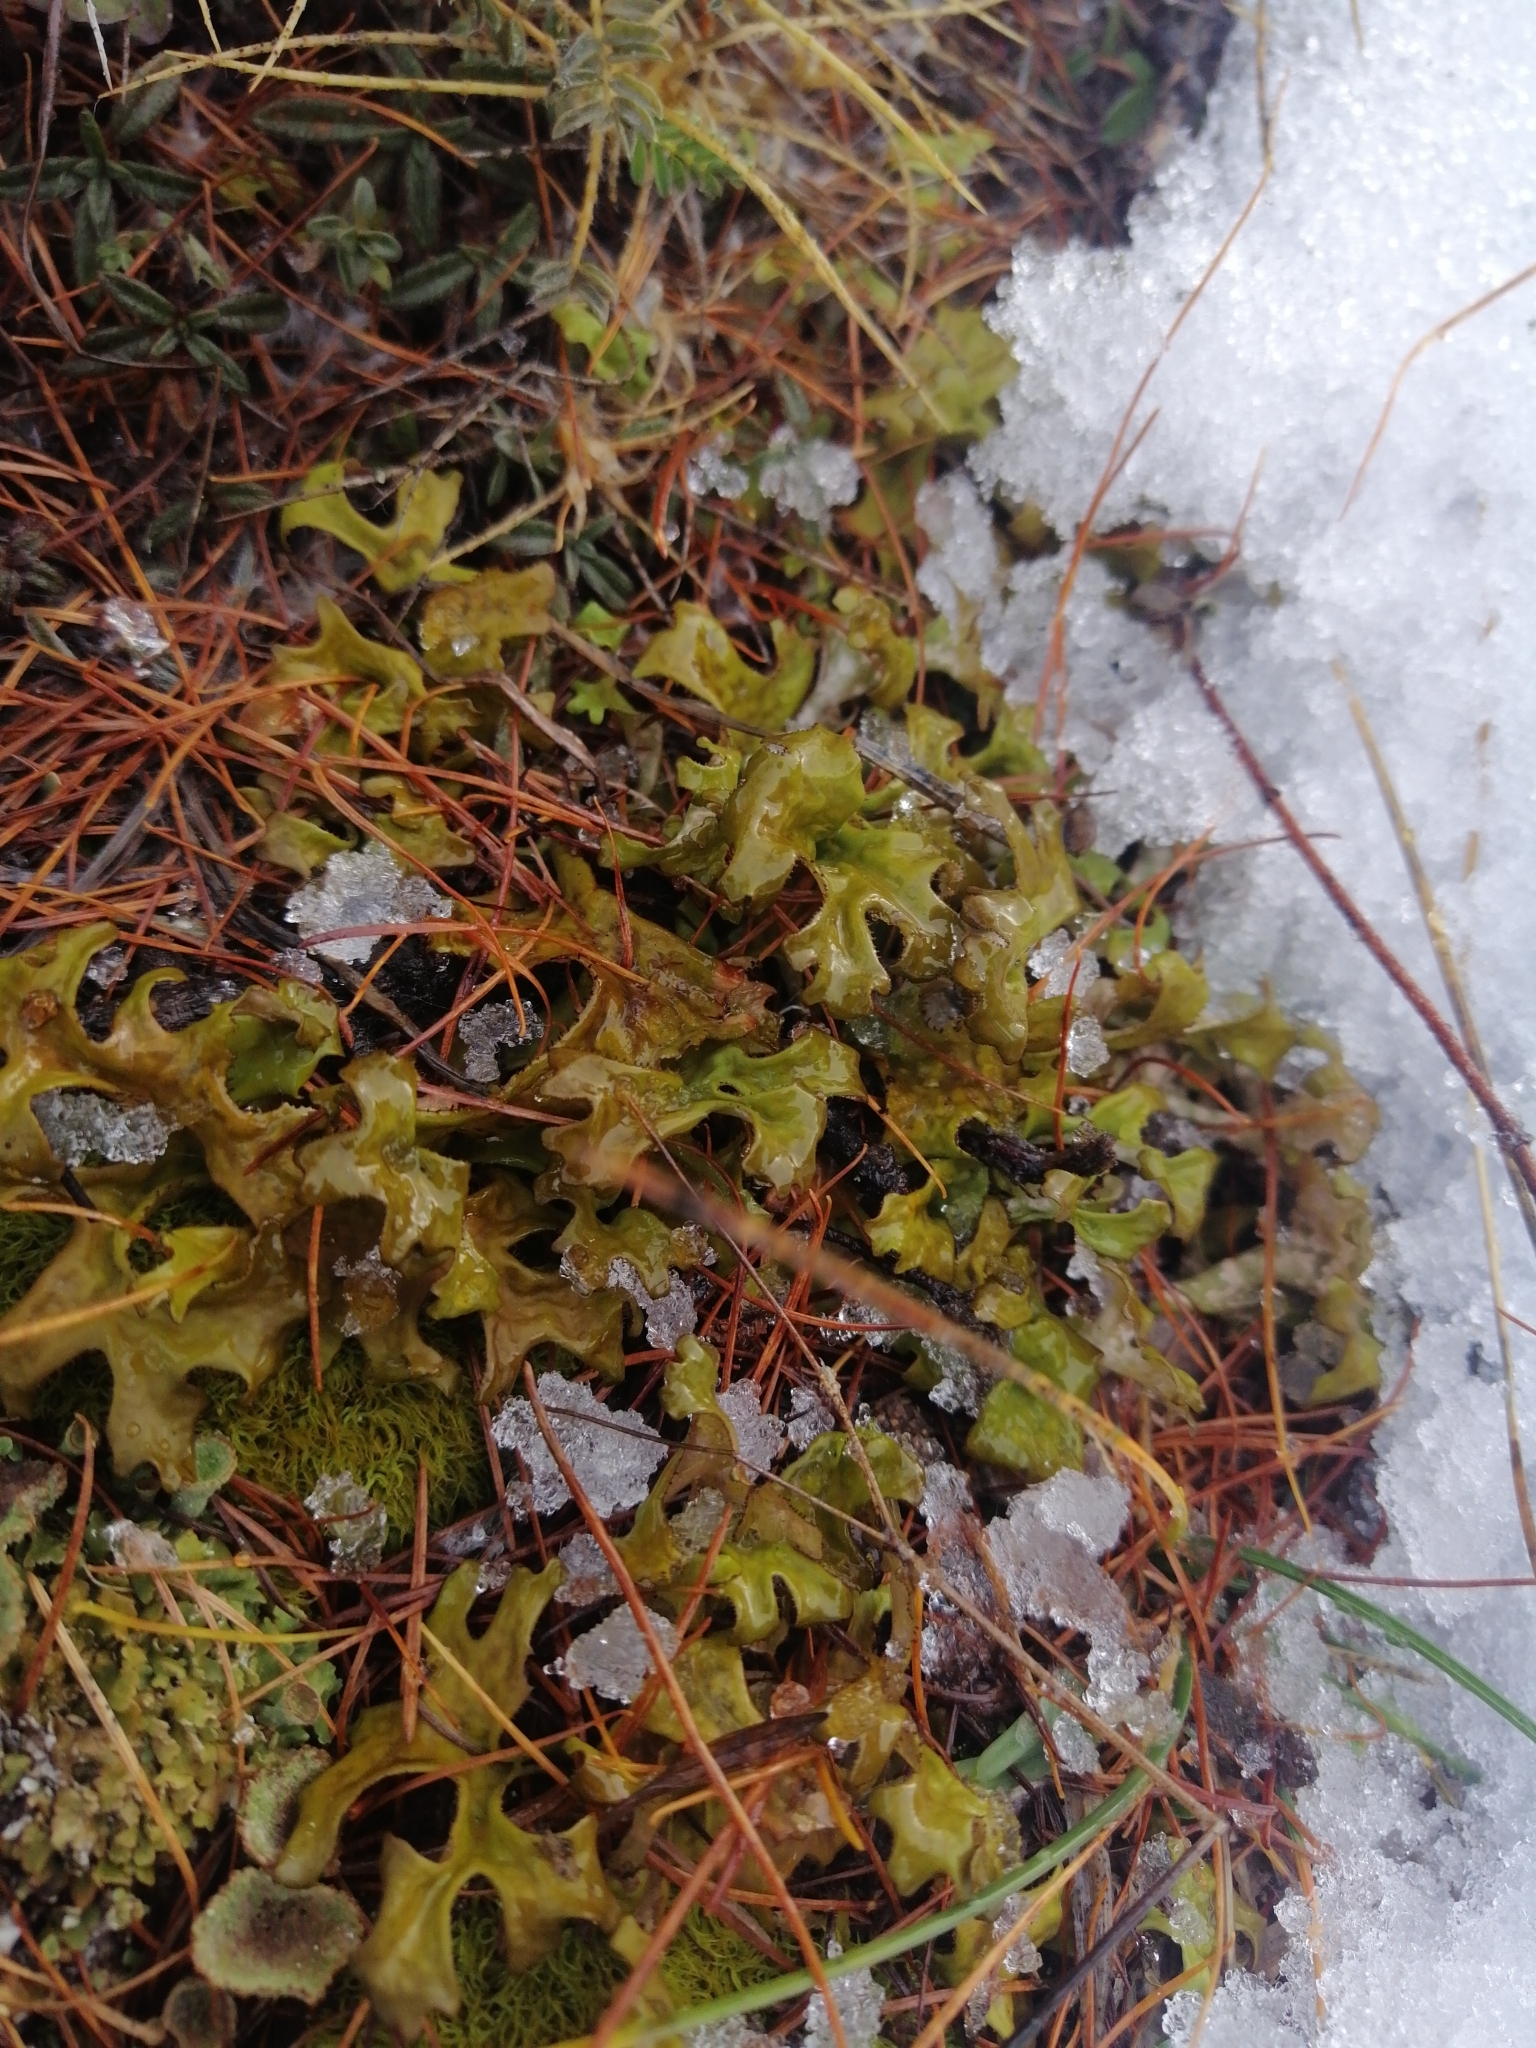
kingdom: Fungi
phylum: Ascomycota
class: Lecanoromycetes
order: Lecanorales
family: Parmeliaceae
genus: Cetraria
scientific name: Cetraria islandica
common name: Iceland lichen
